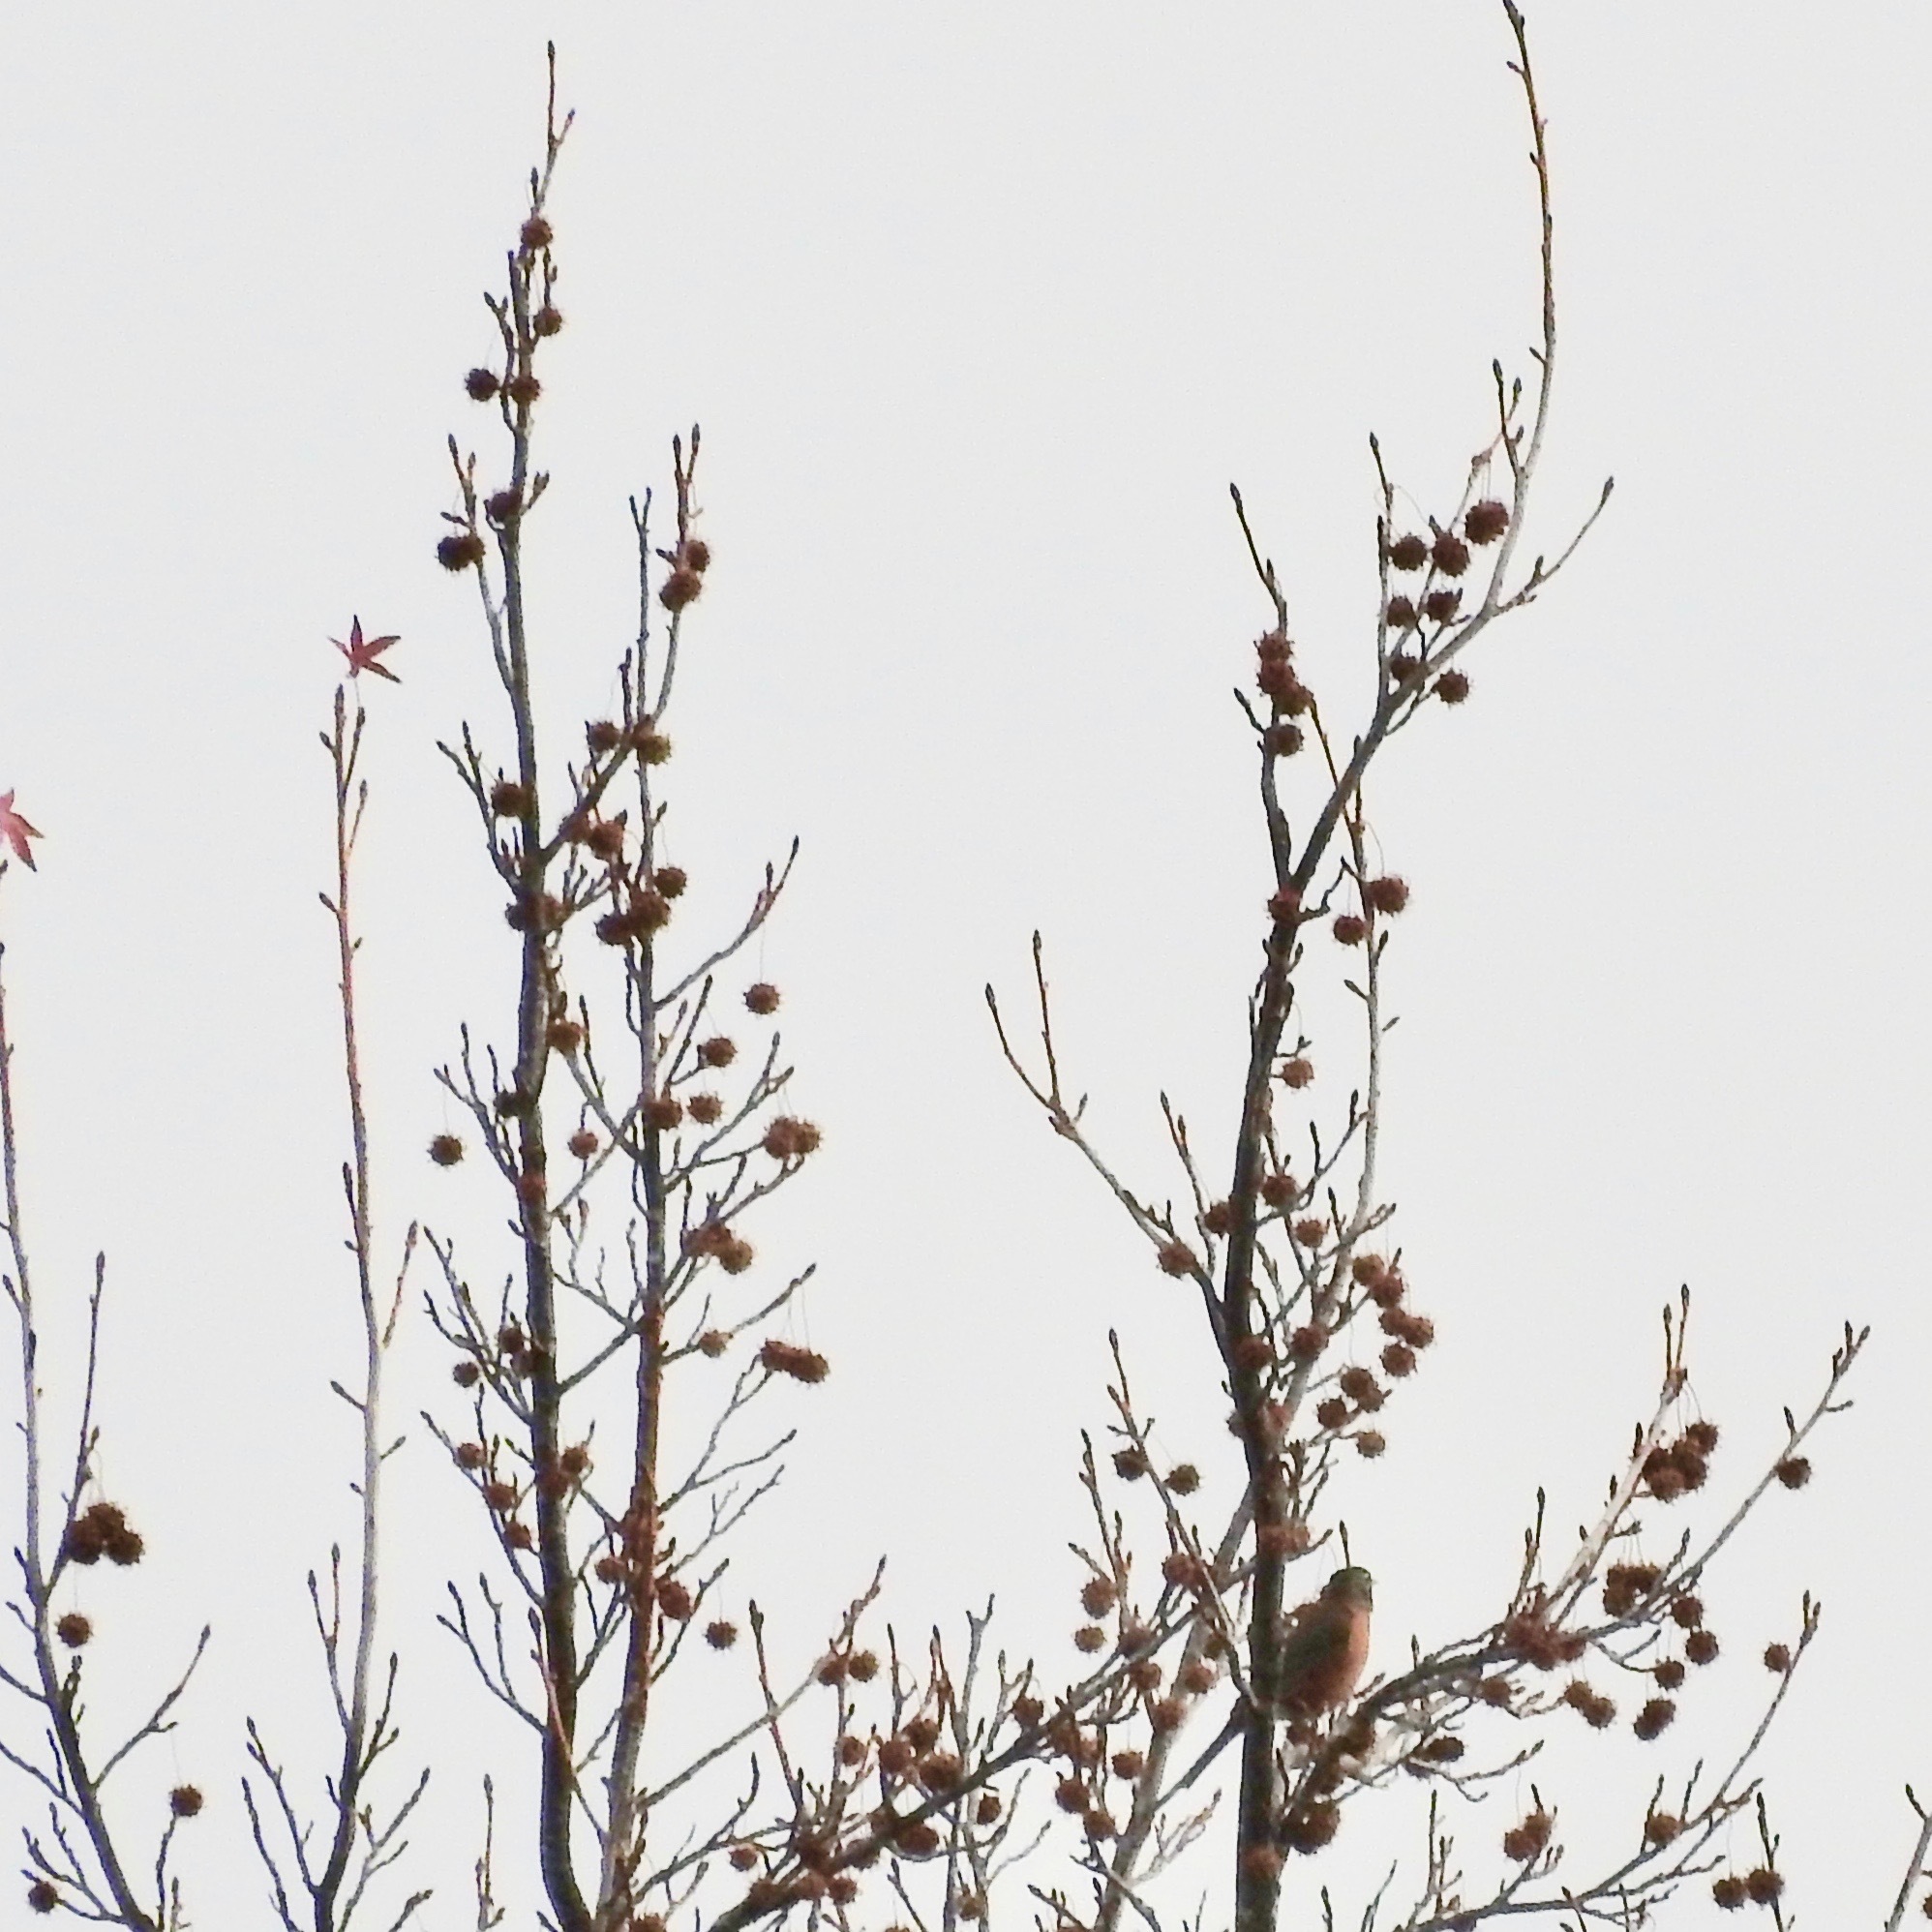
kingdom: Animalia
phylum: Chordata
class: Aves
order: Passeriformes
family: Turdidae
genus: Turdus
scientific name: Turdus migratorius
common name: American robin
